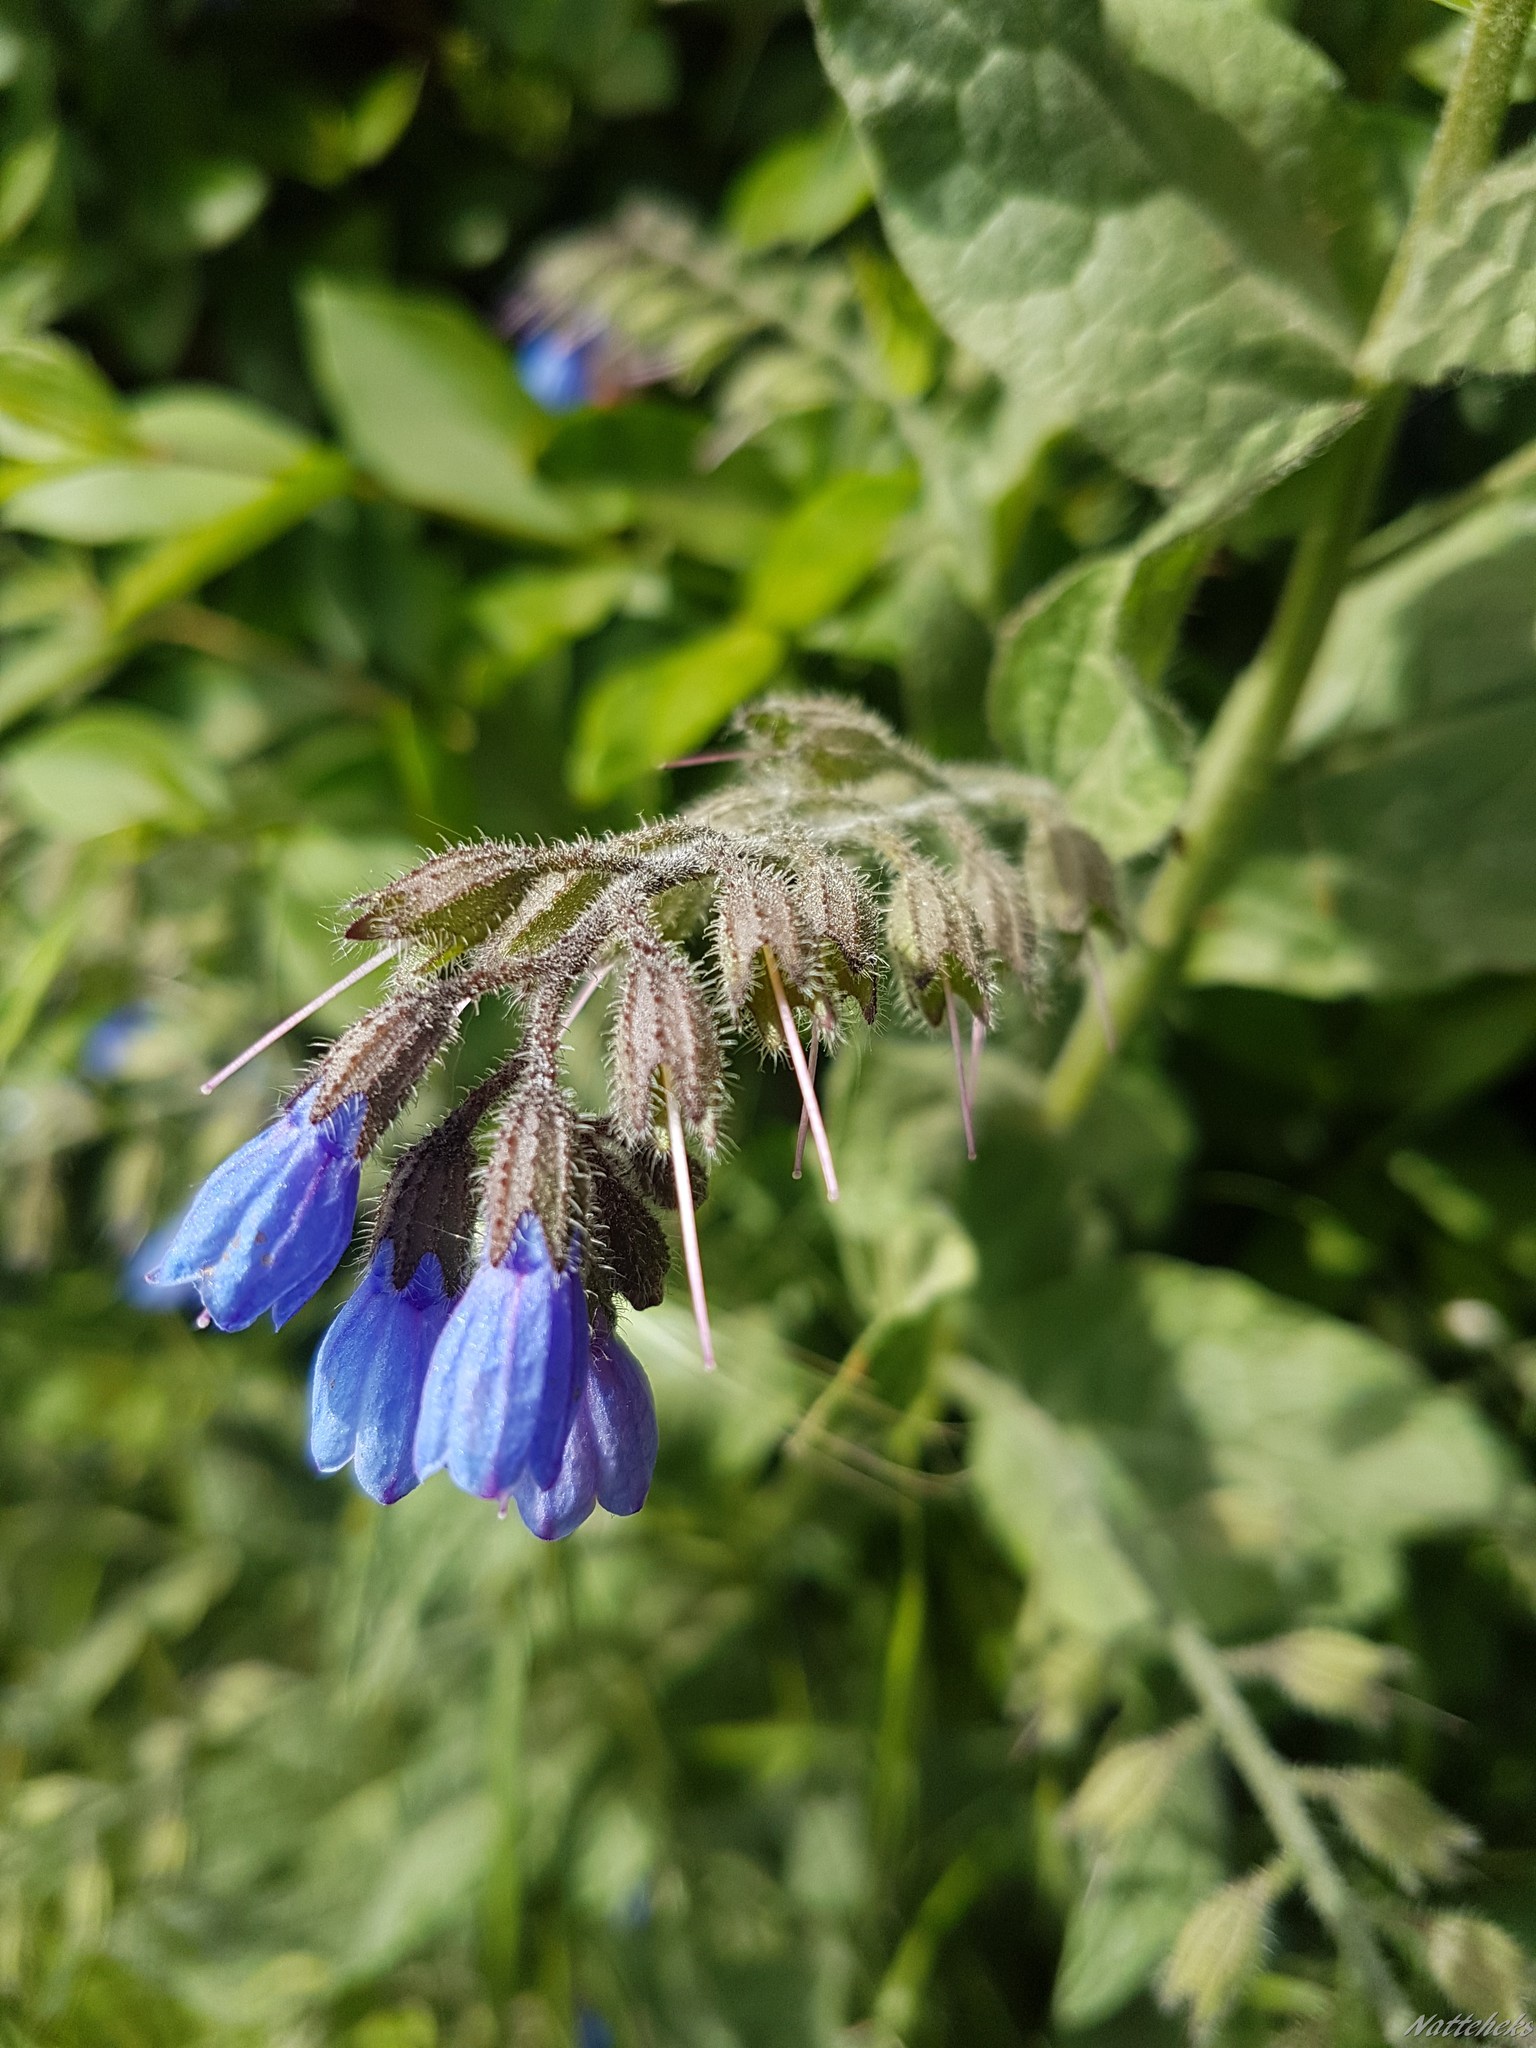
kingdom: Plantae
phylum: Tracheophyta
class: Magnoliopsida
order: Boraginales
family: Boraginaceae
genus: Symphytum
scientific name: Symphytum caucasicum
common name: Caucasian comfrey
